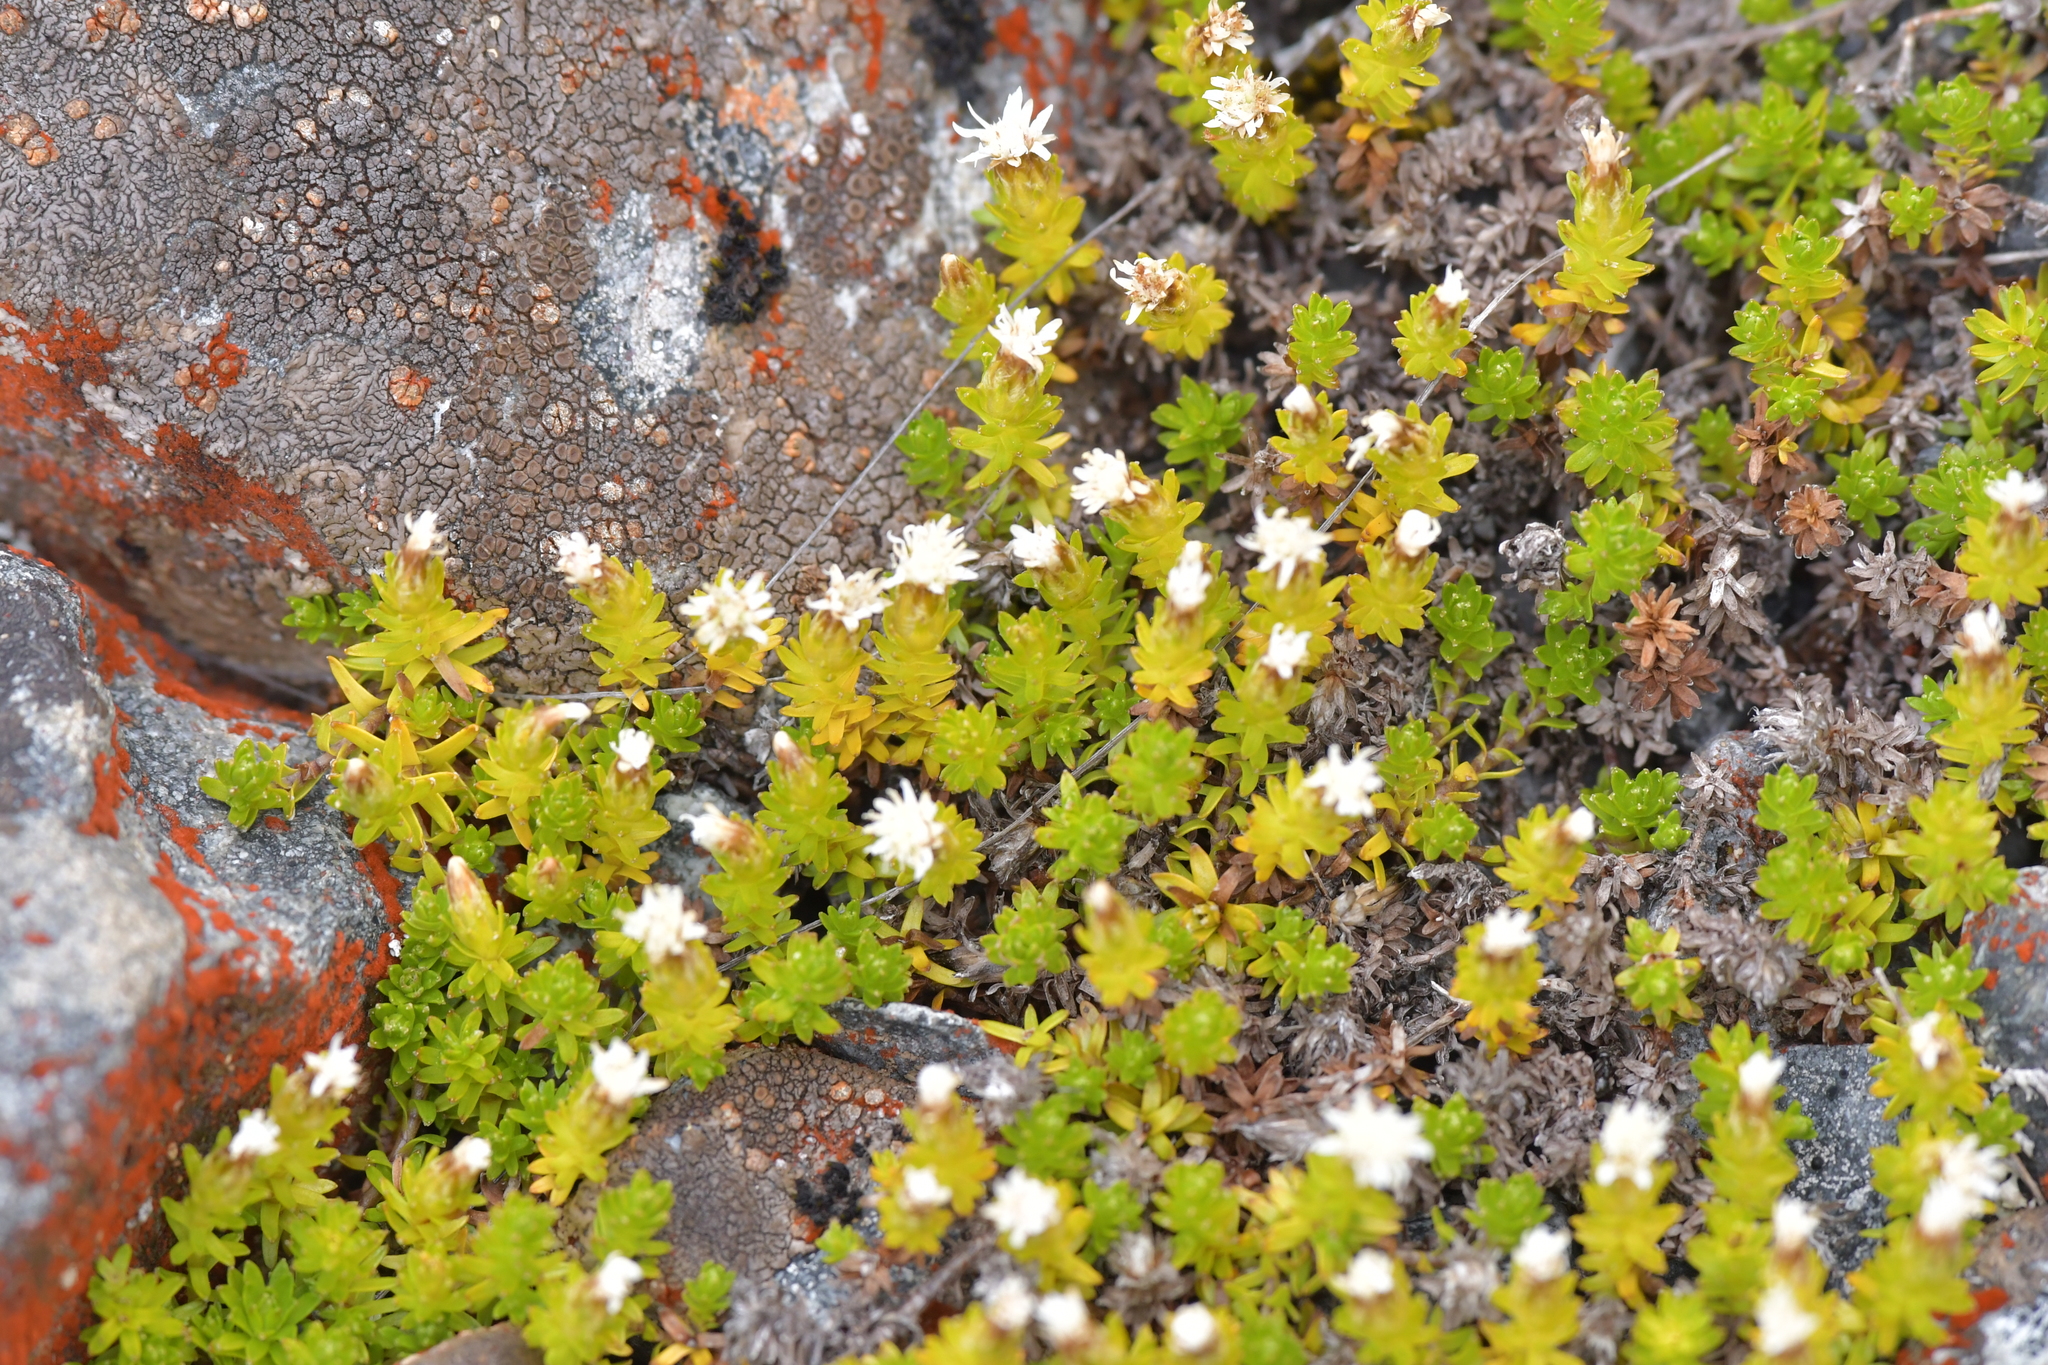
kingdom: Plantae
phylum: Tracheophyta
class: Magnoliopsida
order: Asterales
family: Asteraceae
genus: Raoulia
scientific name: Raoulia glabra
